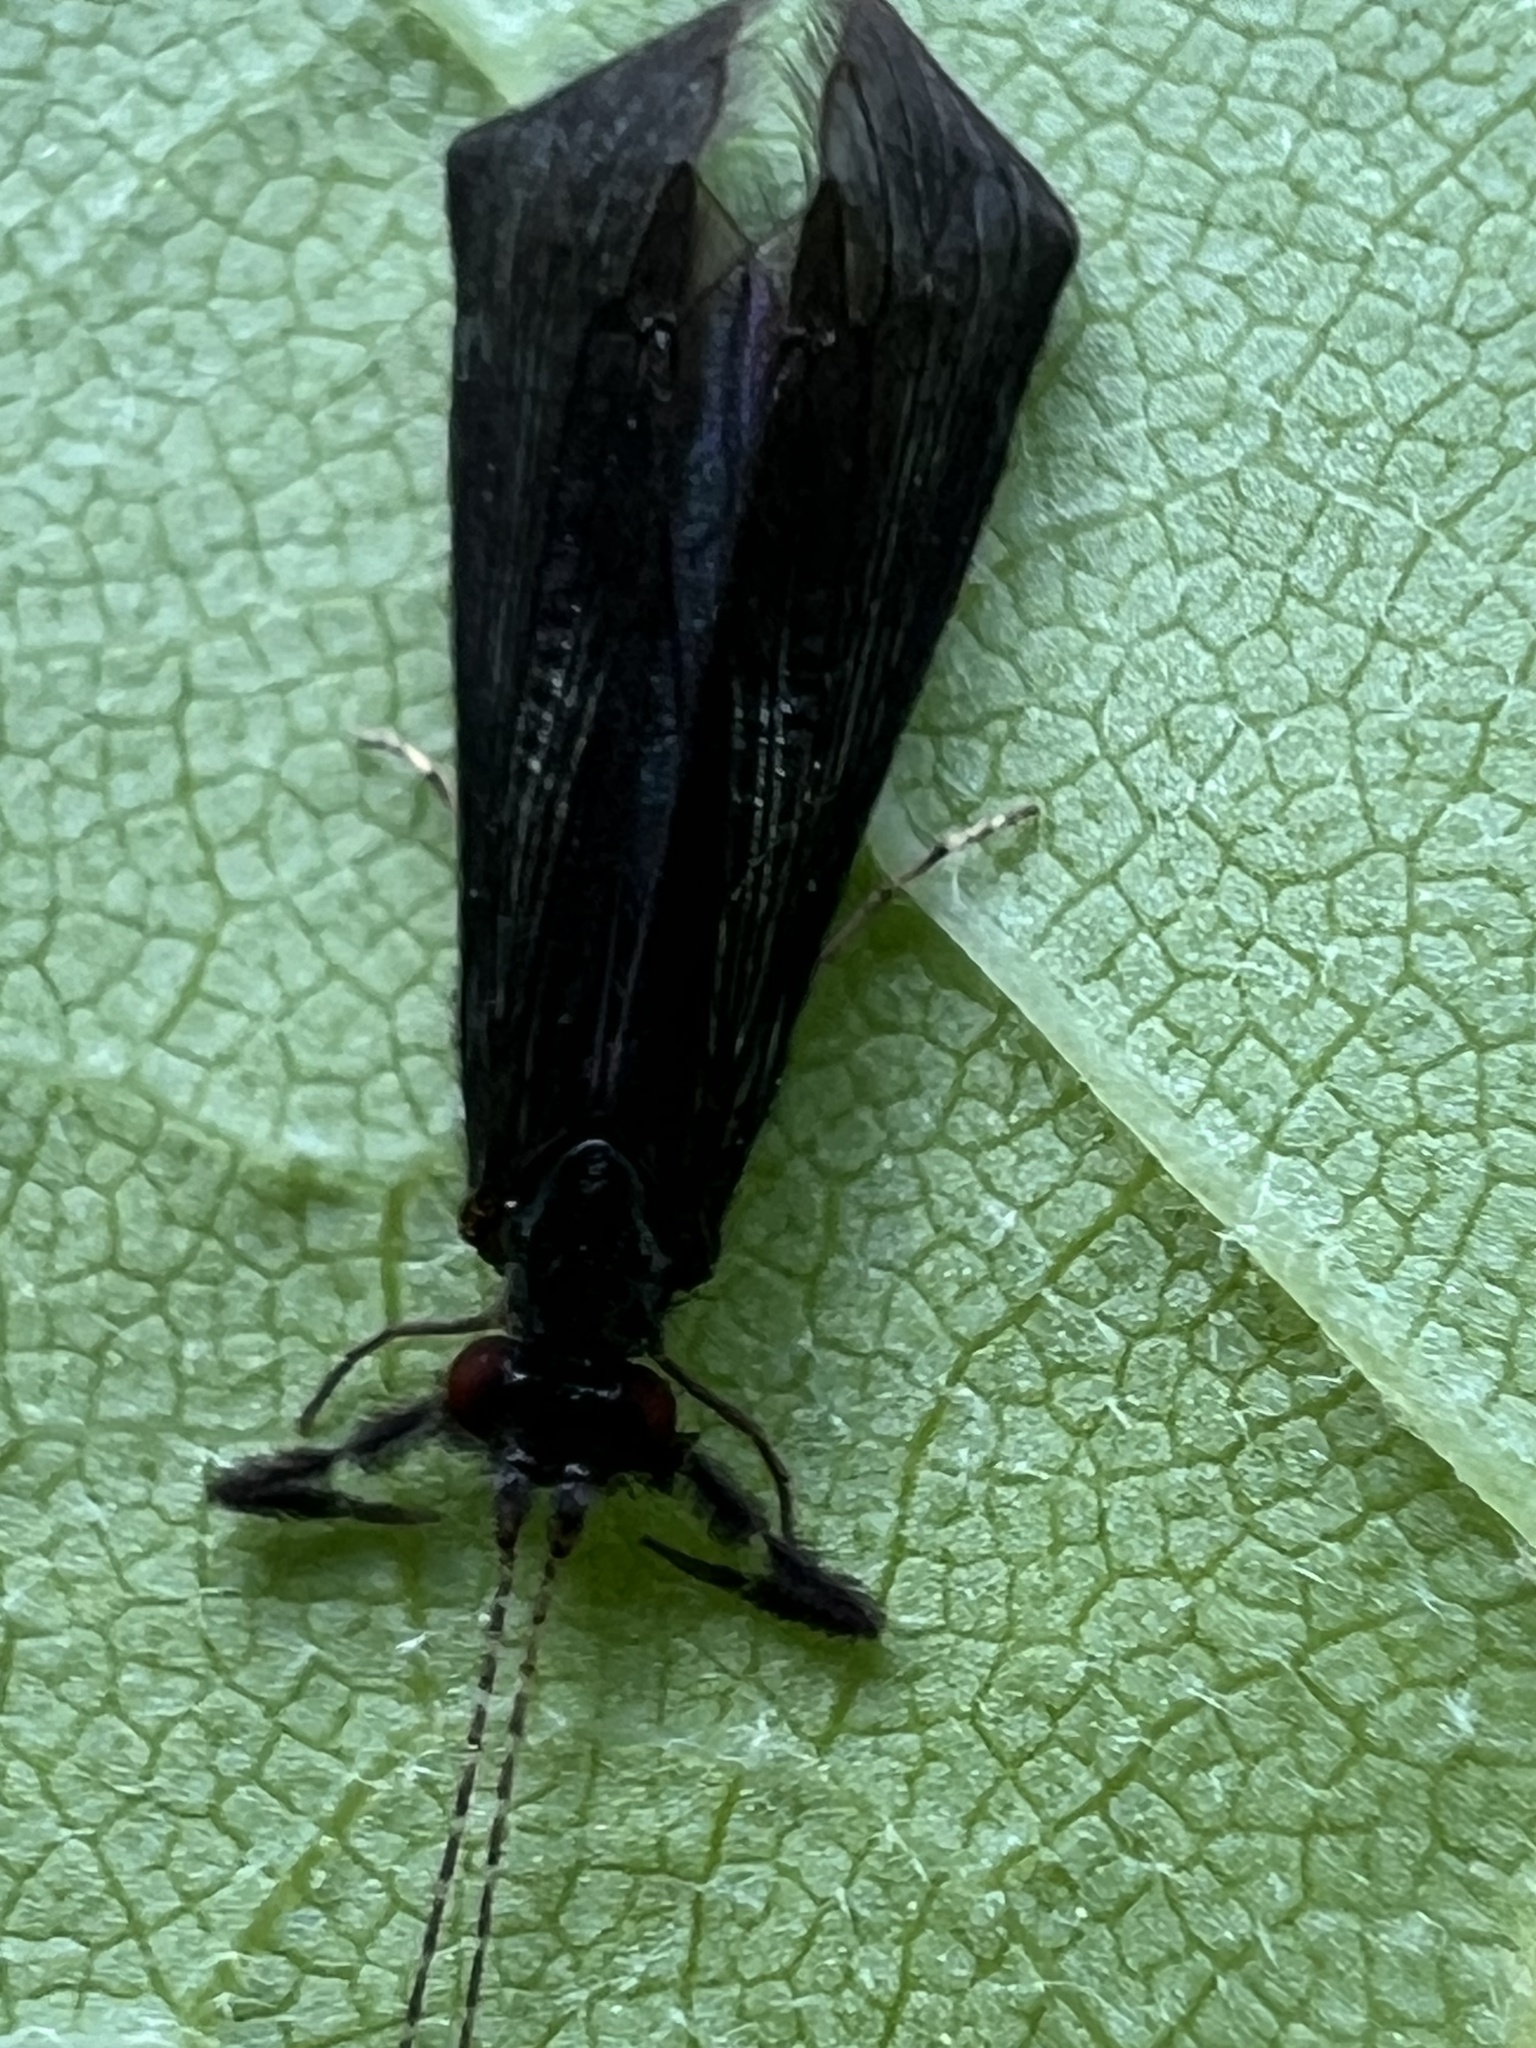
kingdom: Animalia
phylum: Arthropoda
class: Insecta
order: Trichoptera
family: Leptoceridae
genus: Mystacides
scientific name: Mystacides sepulchralis
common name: Black dancer caddisfly
